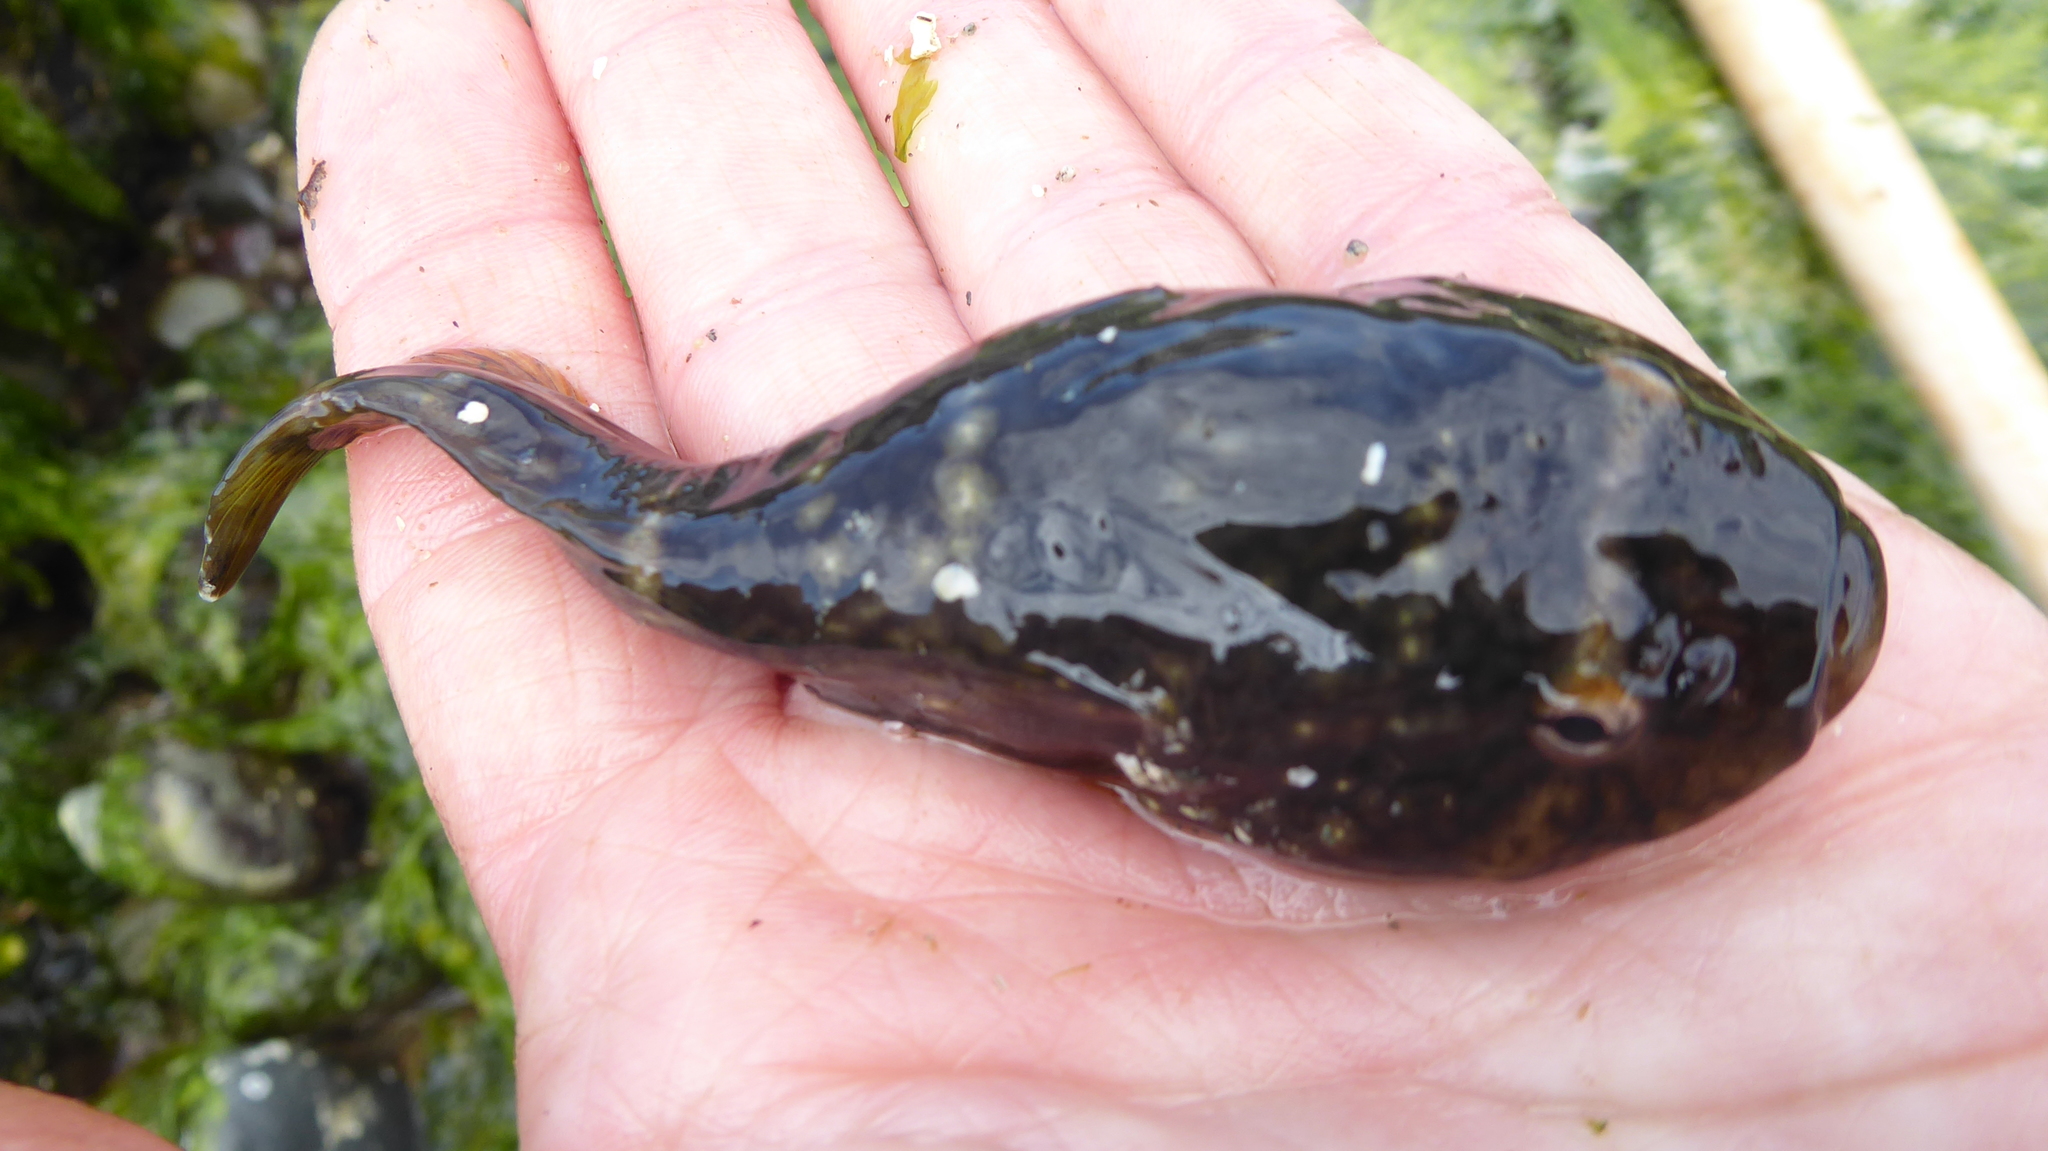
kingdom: Animalia
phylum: Chordata
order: Gobiesociformes
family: Gobiesocidae
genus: Gobiesox
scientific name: Gobiesox maeandricus
